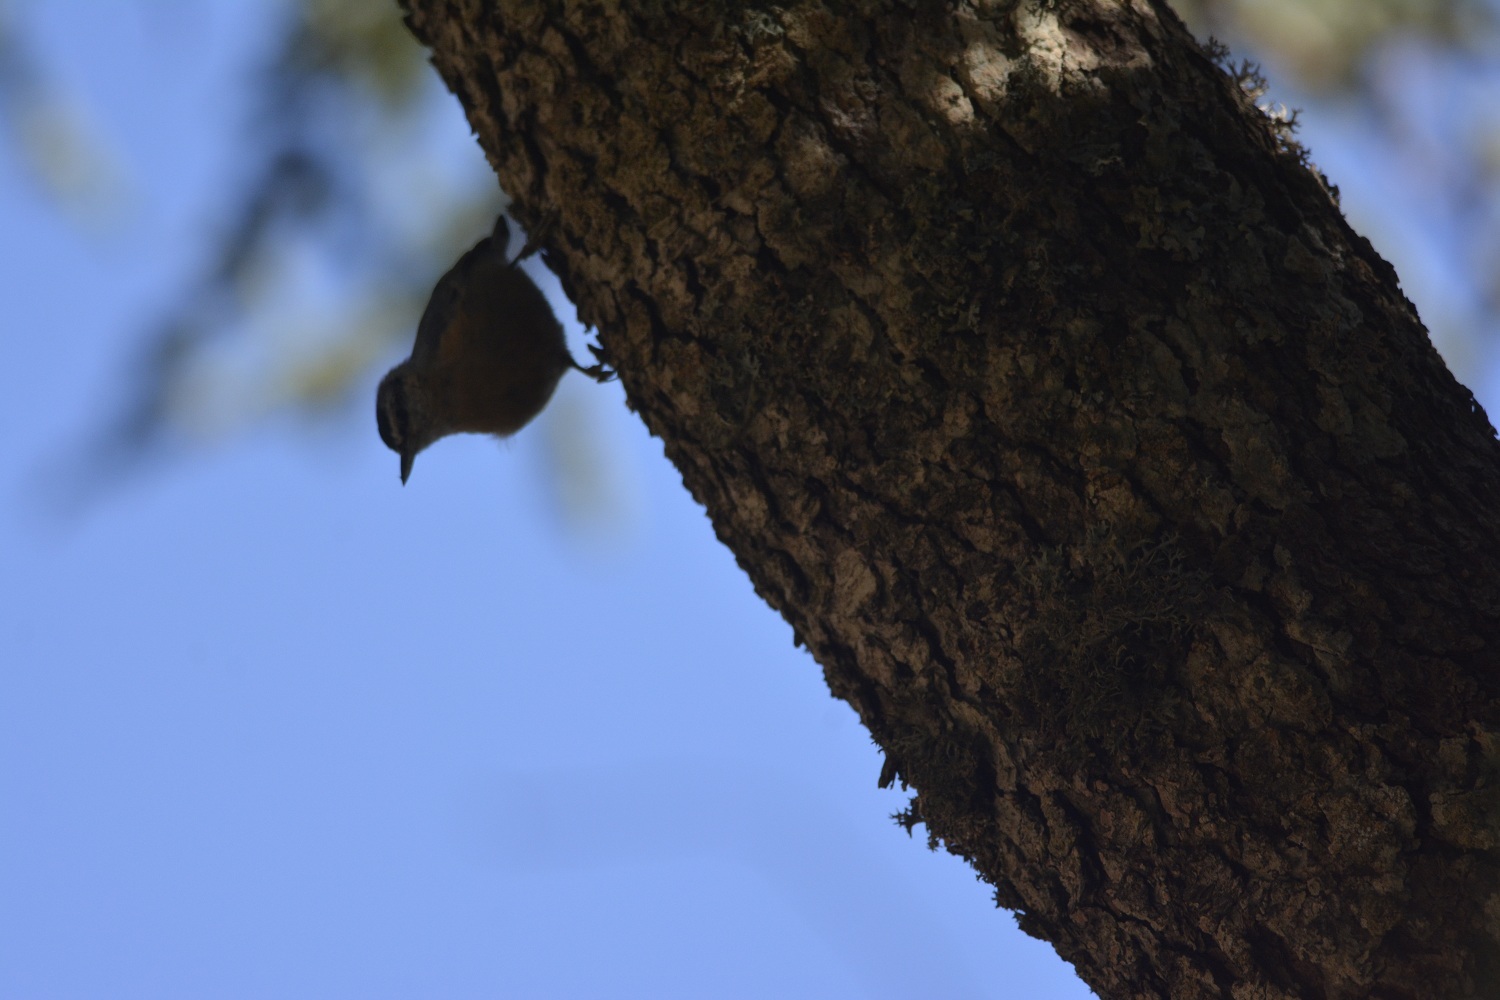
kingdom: Animalia
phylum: Chordata
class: Aves
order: Passeriformes
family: Sittidae
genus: Sitta
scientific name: Sitta ledanti
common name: Algerian nuthatch
